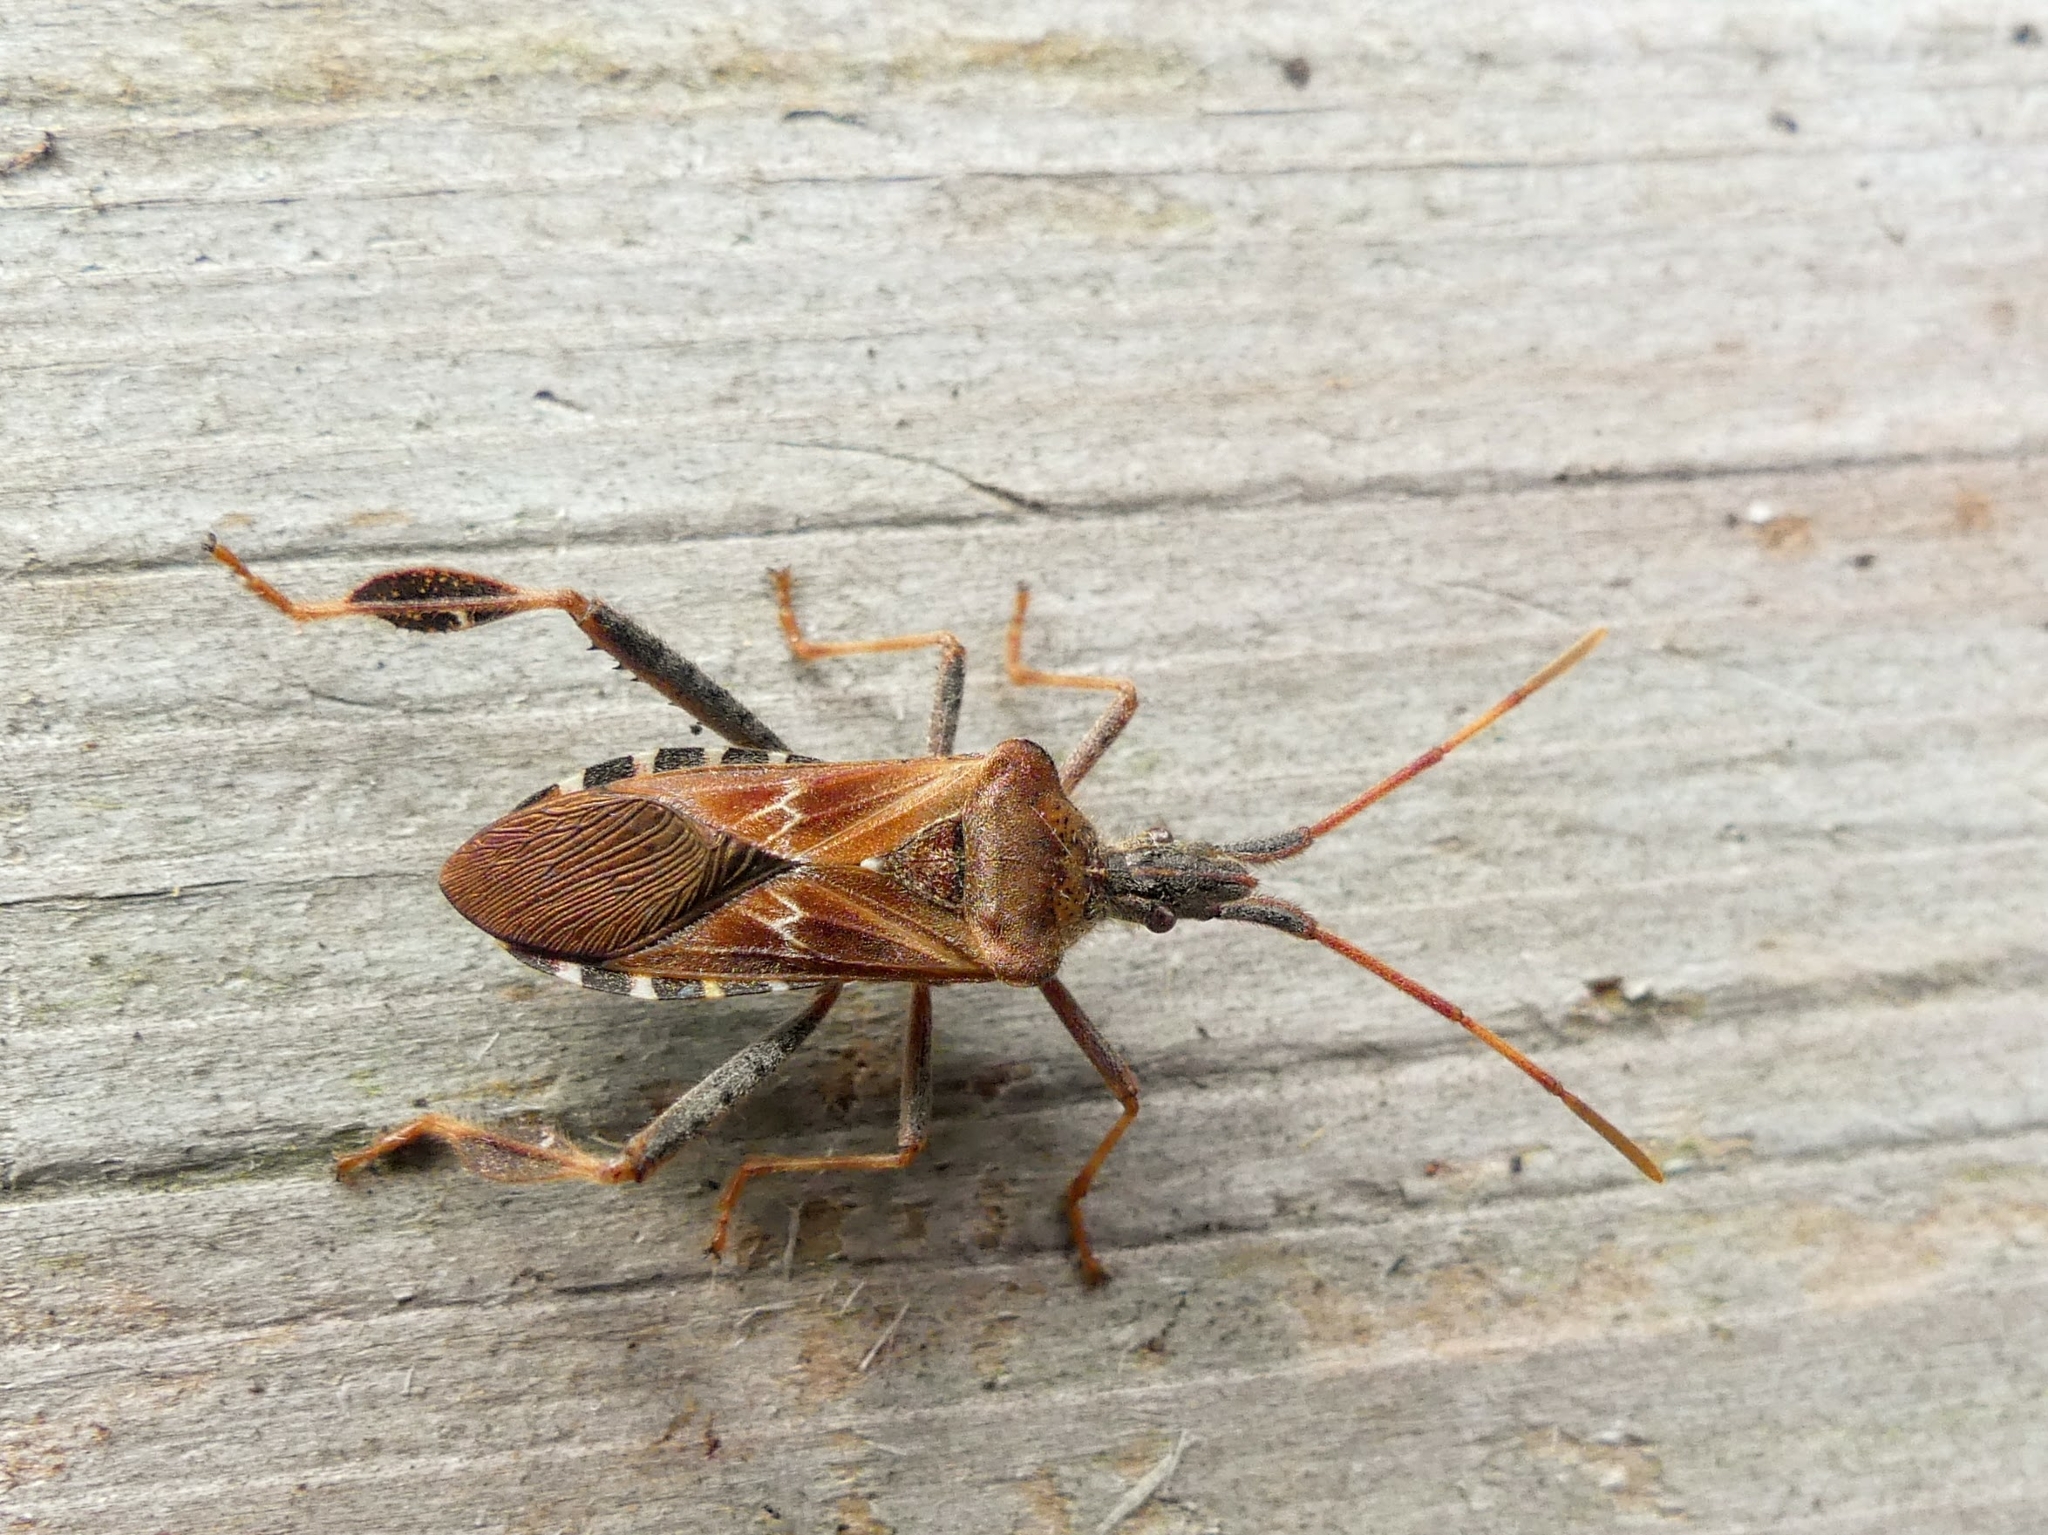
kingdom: Animalia
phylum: Arthropoda
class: Insecta
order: Hemiptera
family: Coreidae
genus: Leptoglossus
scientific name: Leptoglossus corculus
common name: Southern pine seed bug
